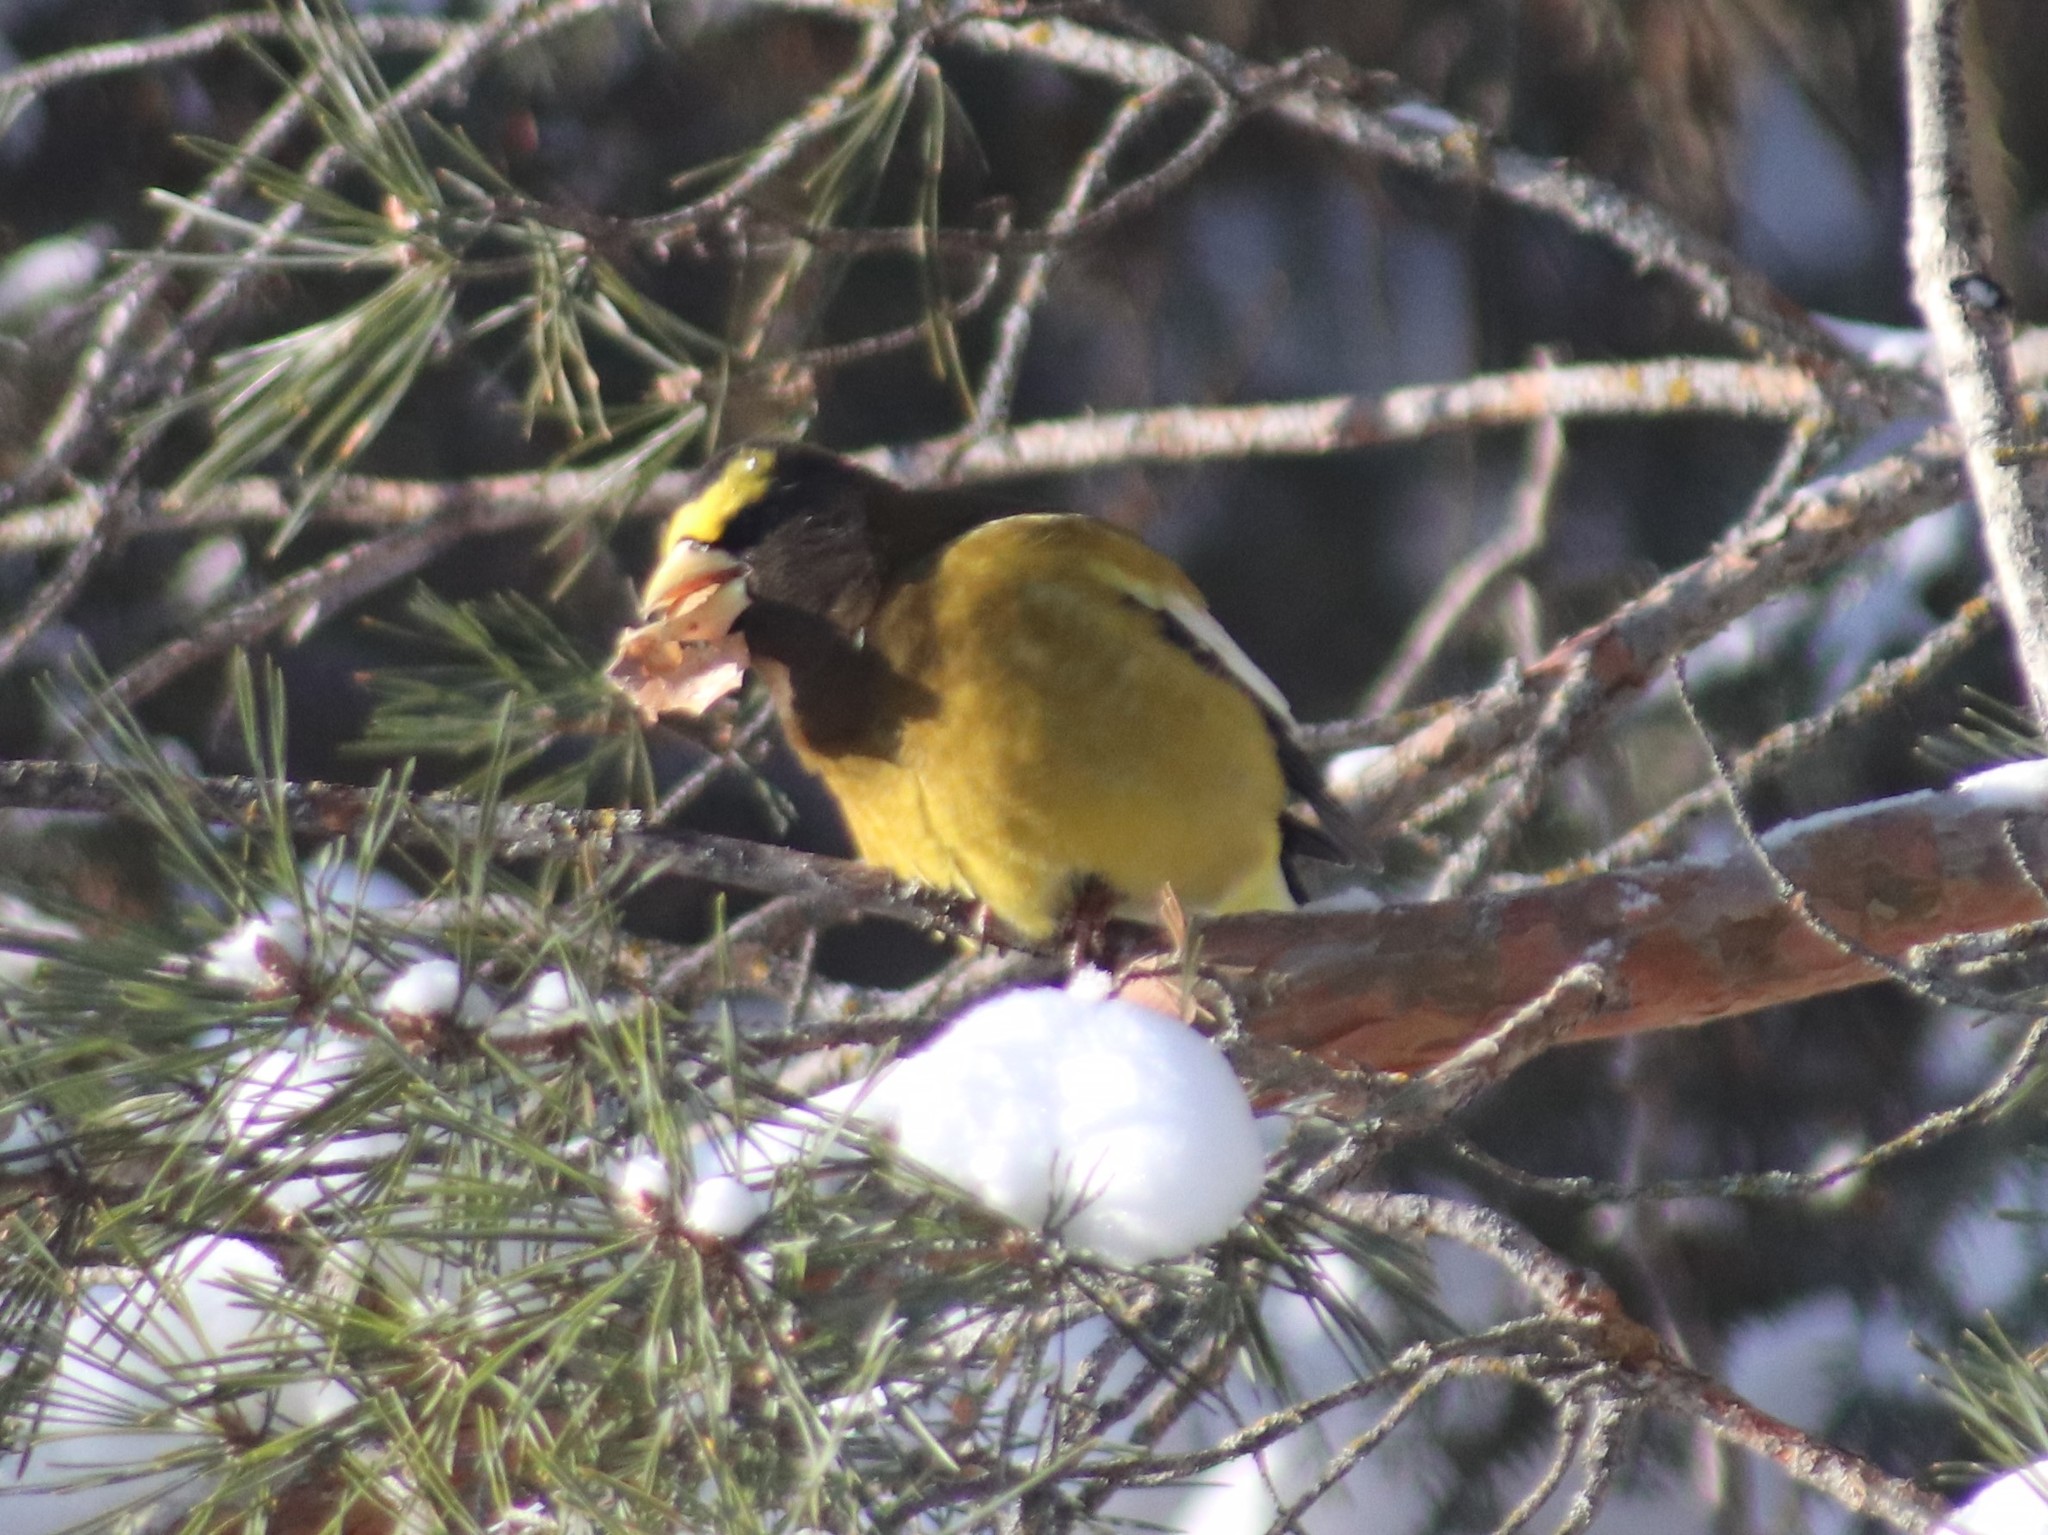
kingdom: Animalia
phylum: Chordata
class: Aves
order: Passeriformes
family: Fringillidae
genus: Hesperiphona
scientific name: Hesperiphona vespertina
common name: Evening grosbeak
